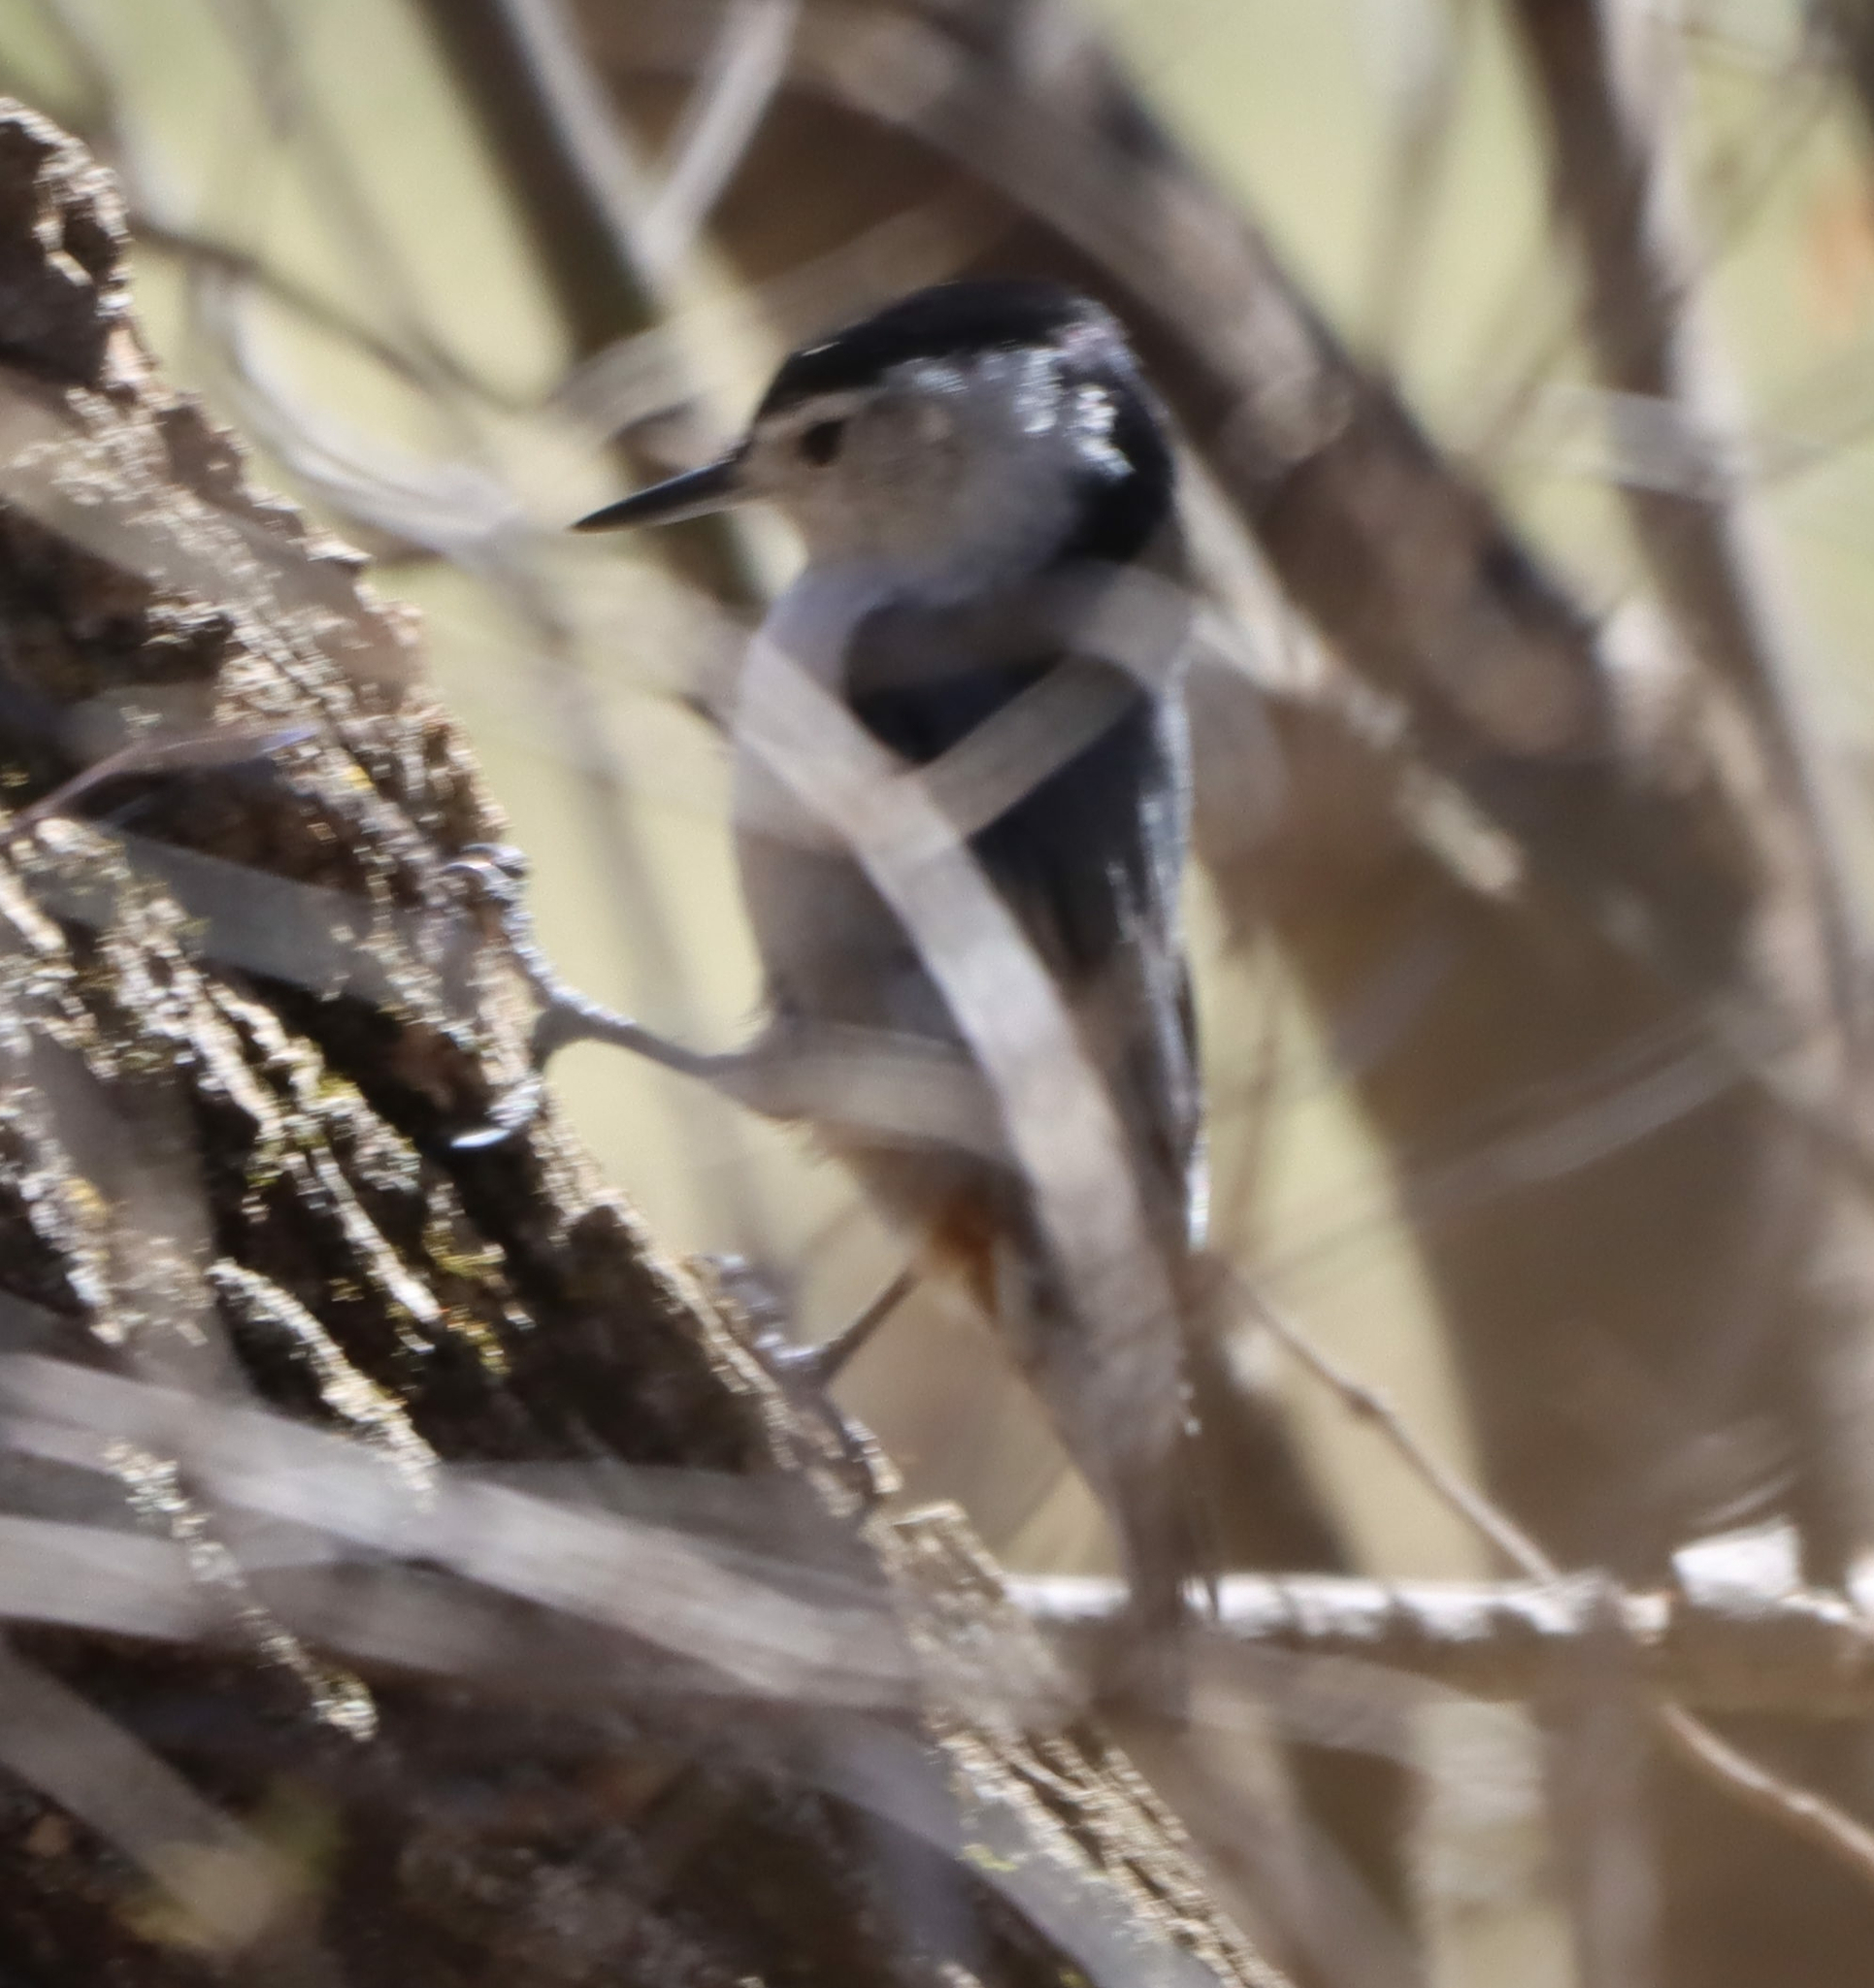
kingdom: Animalia
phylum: Chordata
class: Aves
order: Passeriformes
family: Sittidae
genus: Sitta
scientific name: Sitta carolinensis
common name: White-breasted nuthatch
